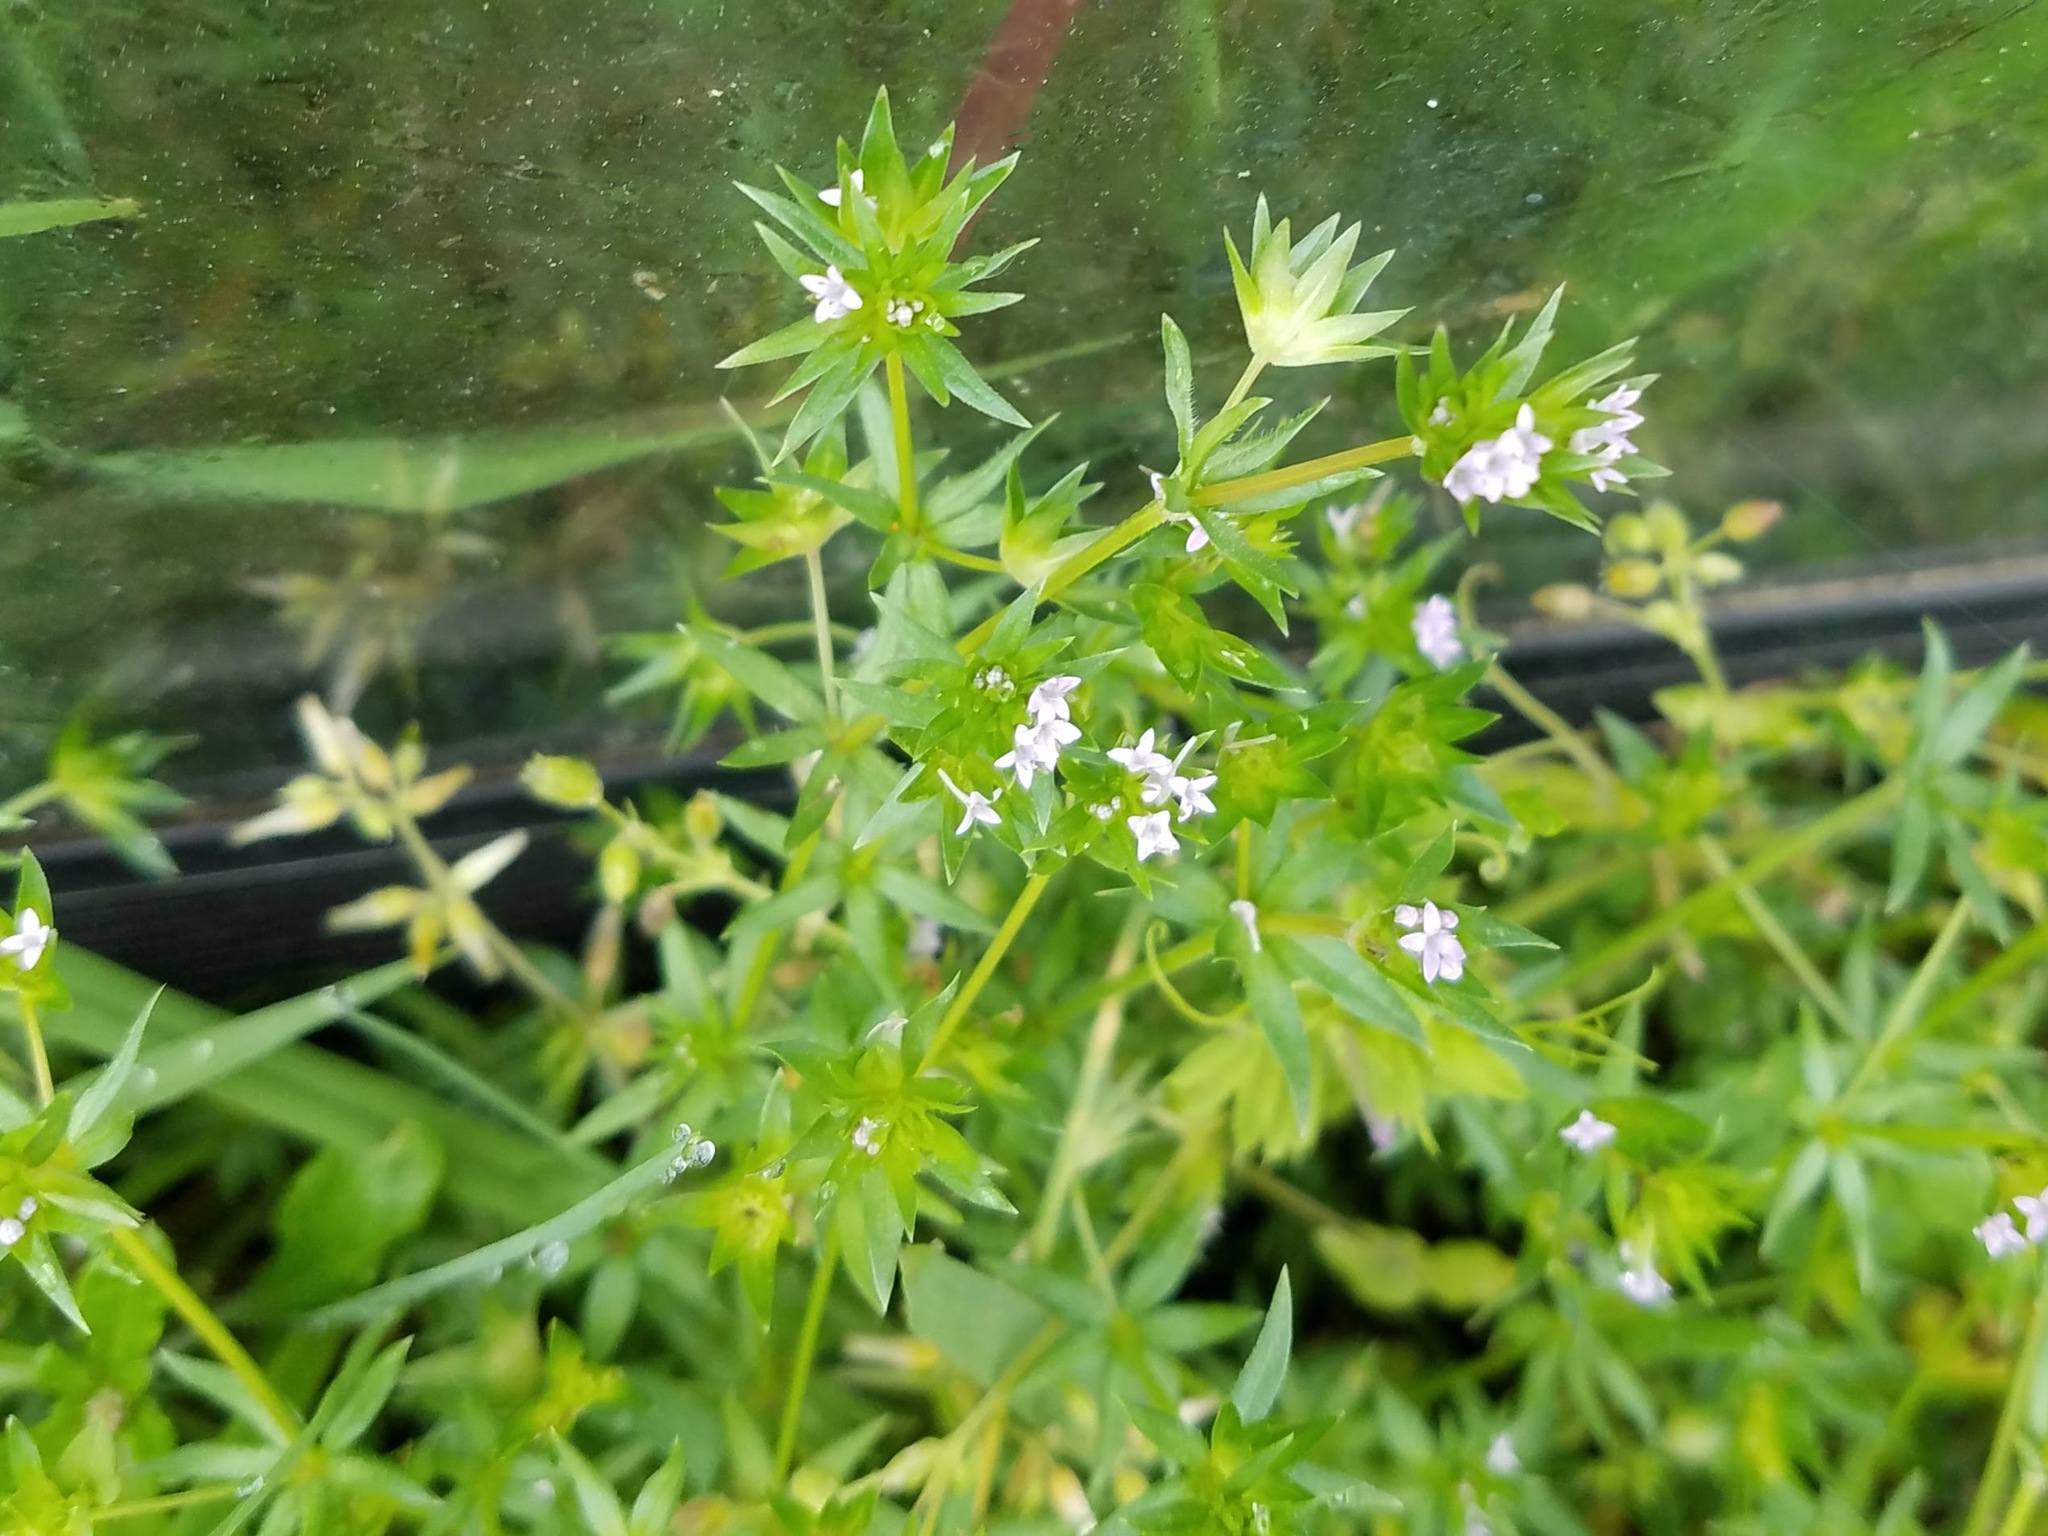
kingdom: Plantae
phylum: Tracheophyta
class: Magnoliopsida
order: Gentianales
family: Rubiaceae
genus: Sherardia
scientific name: Sherardia arvensis
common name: Field madder
